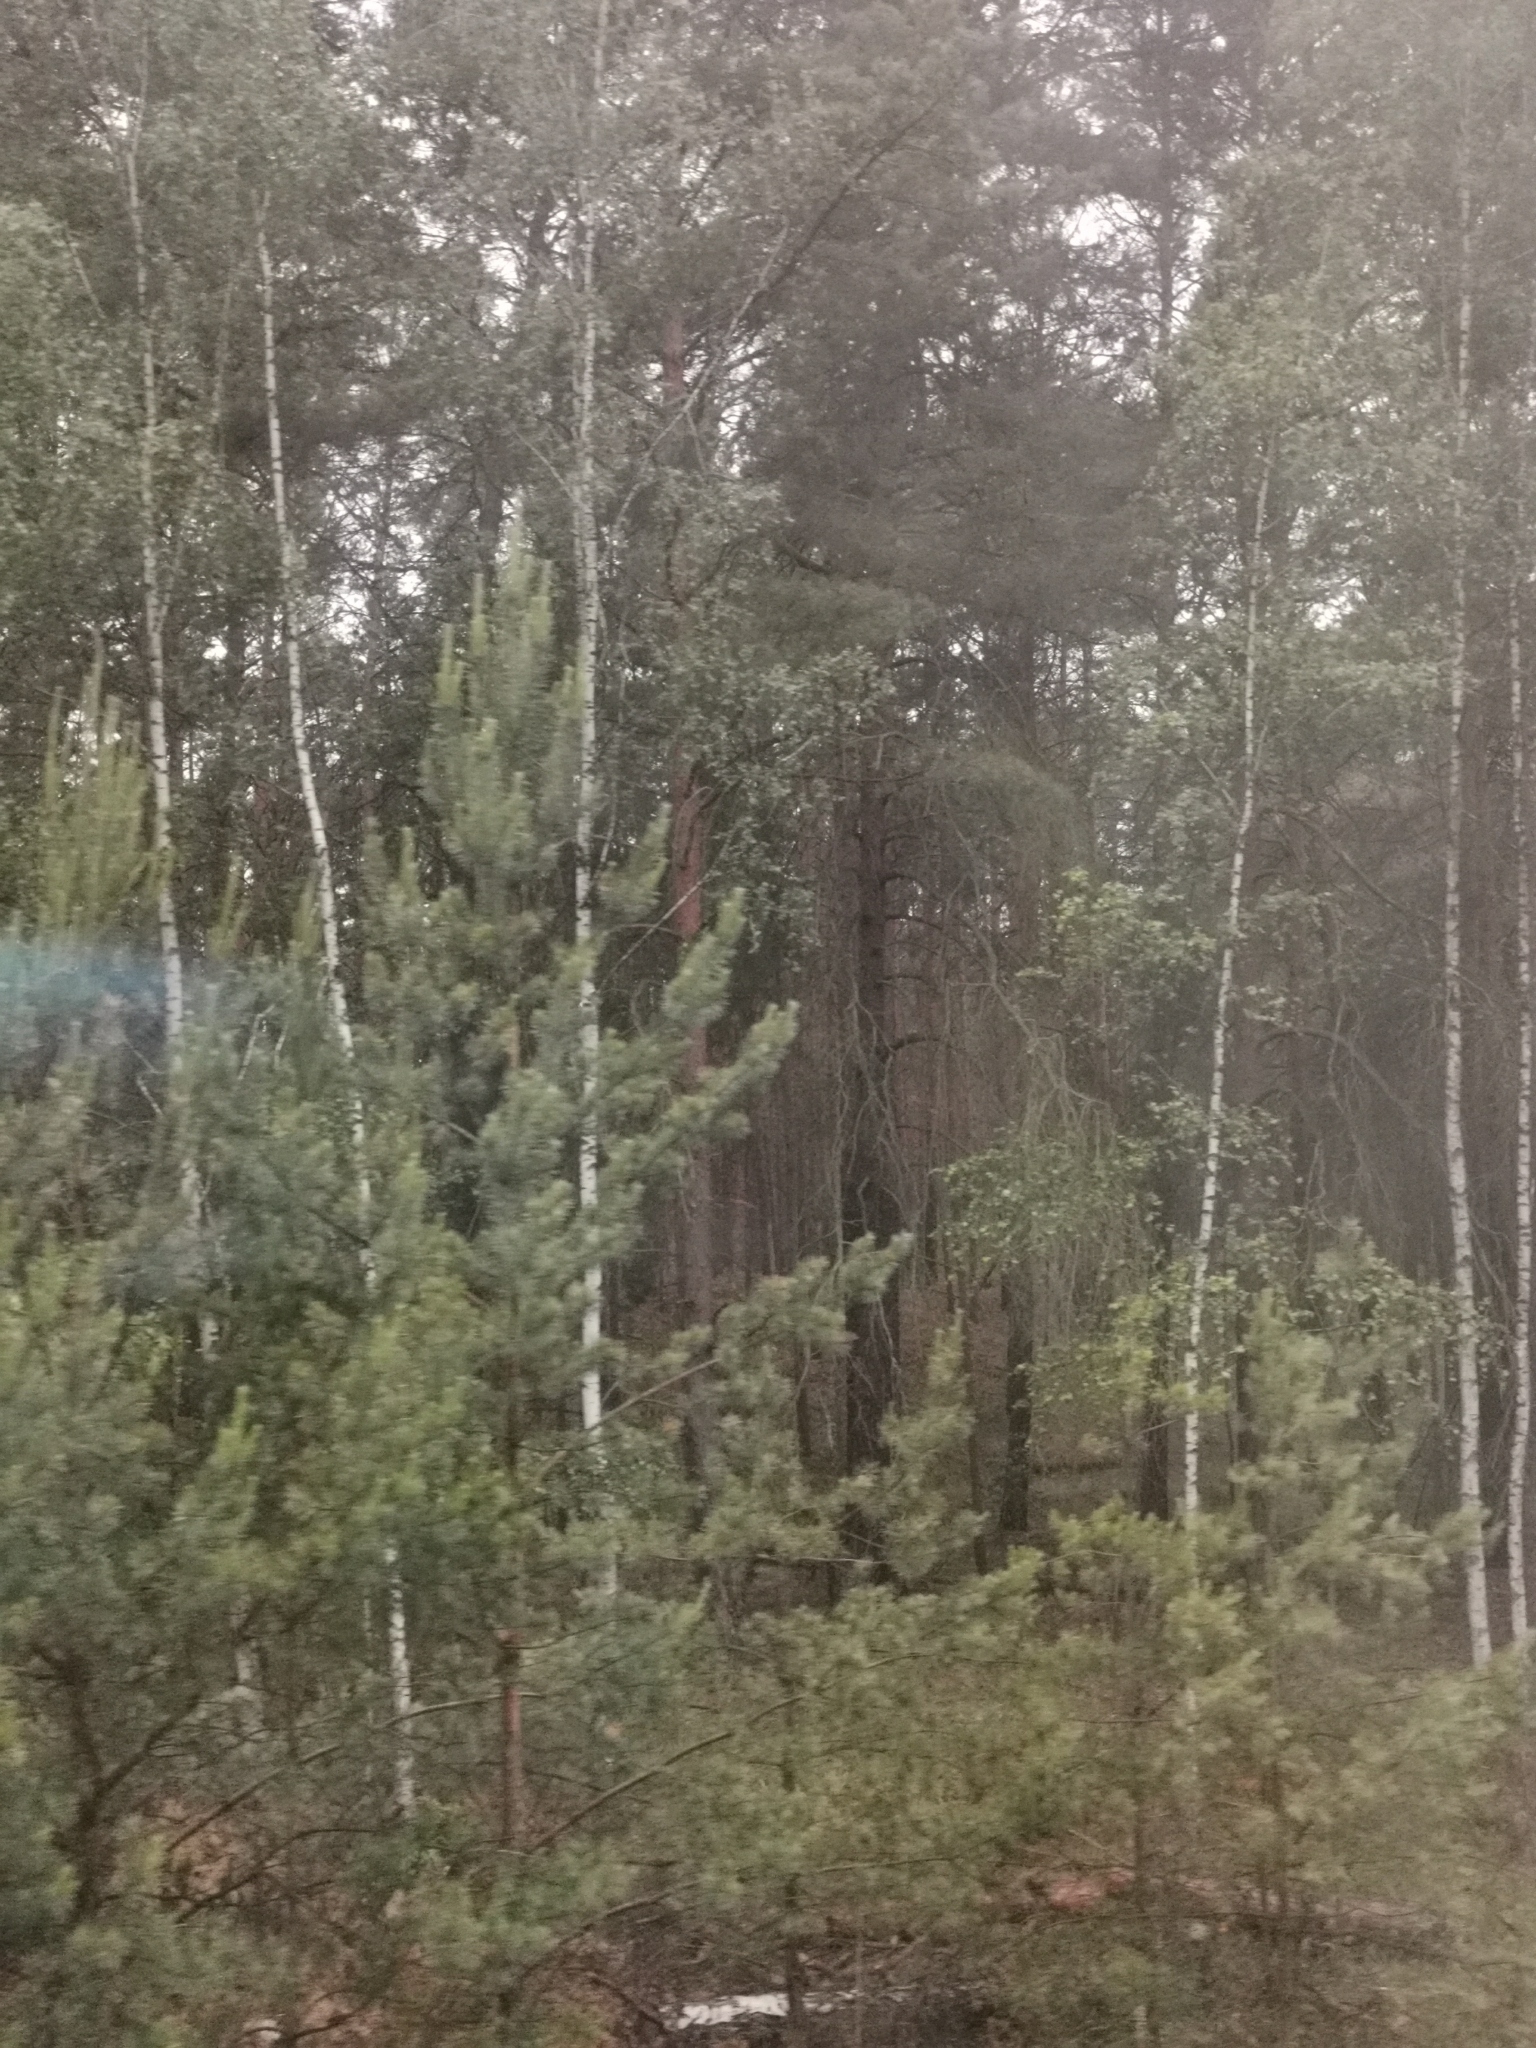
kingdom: Plantae
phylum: Tracheophyta
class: Magnoliopsida
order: Fagales
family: Betulaceae
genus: Betula
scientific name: Betula pendula
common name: Silver birch
